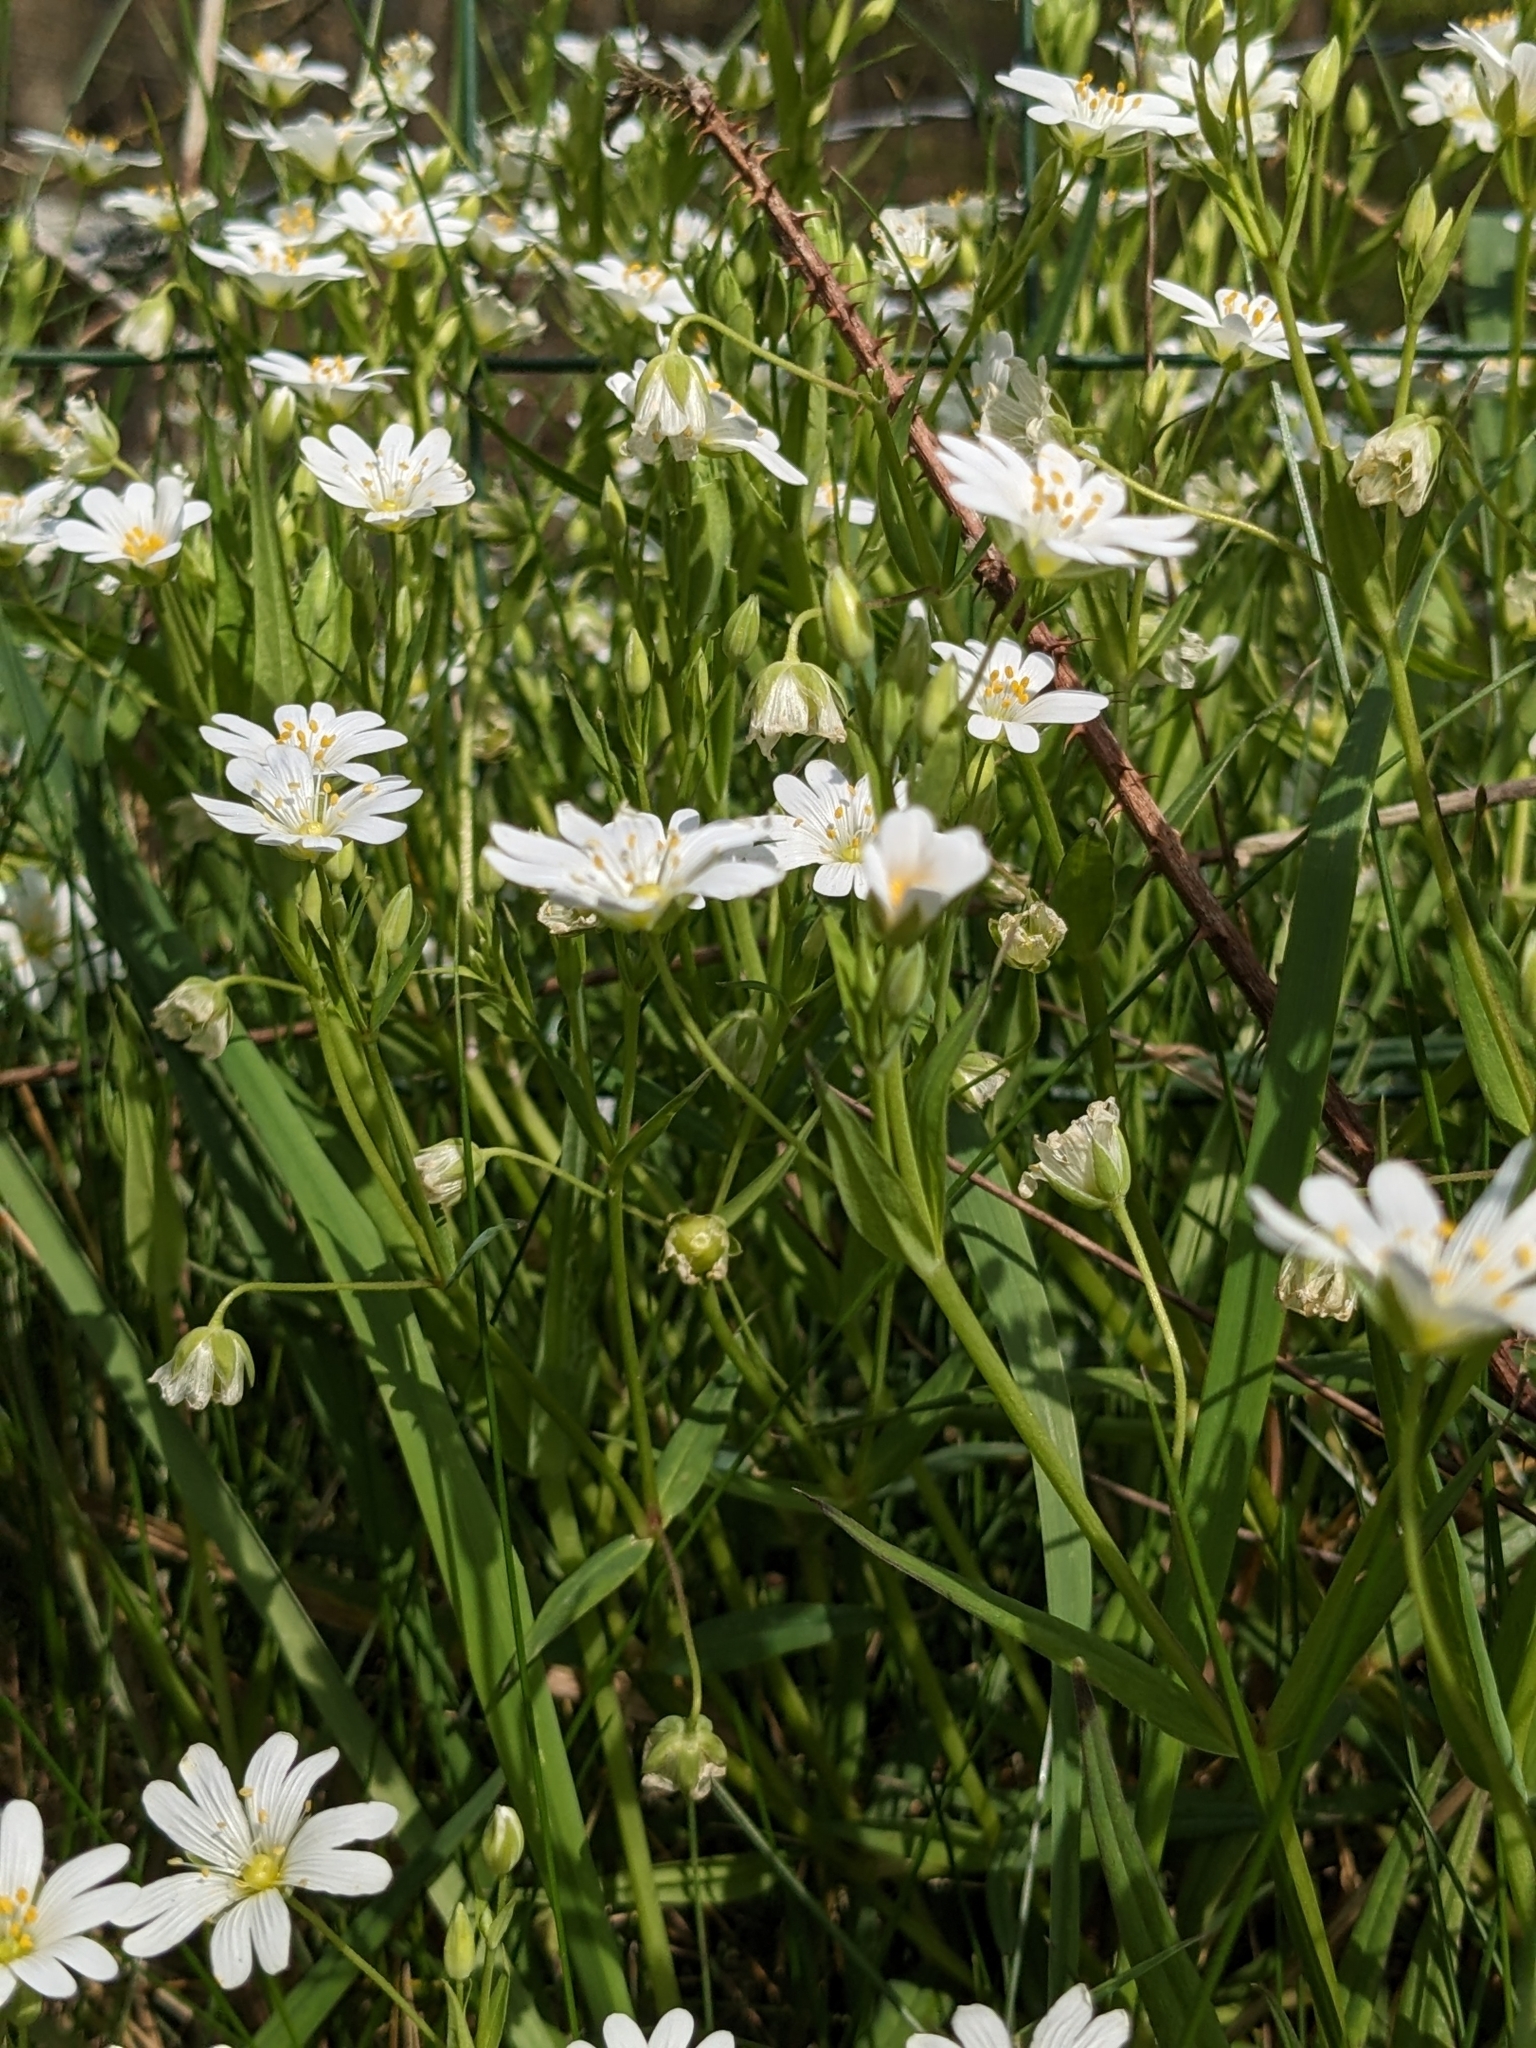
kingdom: Plantae
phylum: Tracheophyta
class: Magnoliopsida
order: Caryophyllales
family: Caryophyllaceae
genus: Rabelera
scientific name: Rabelera holostea
